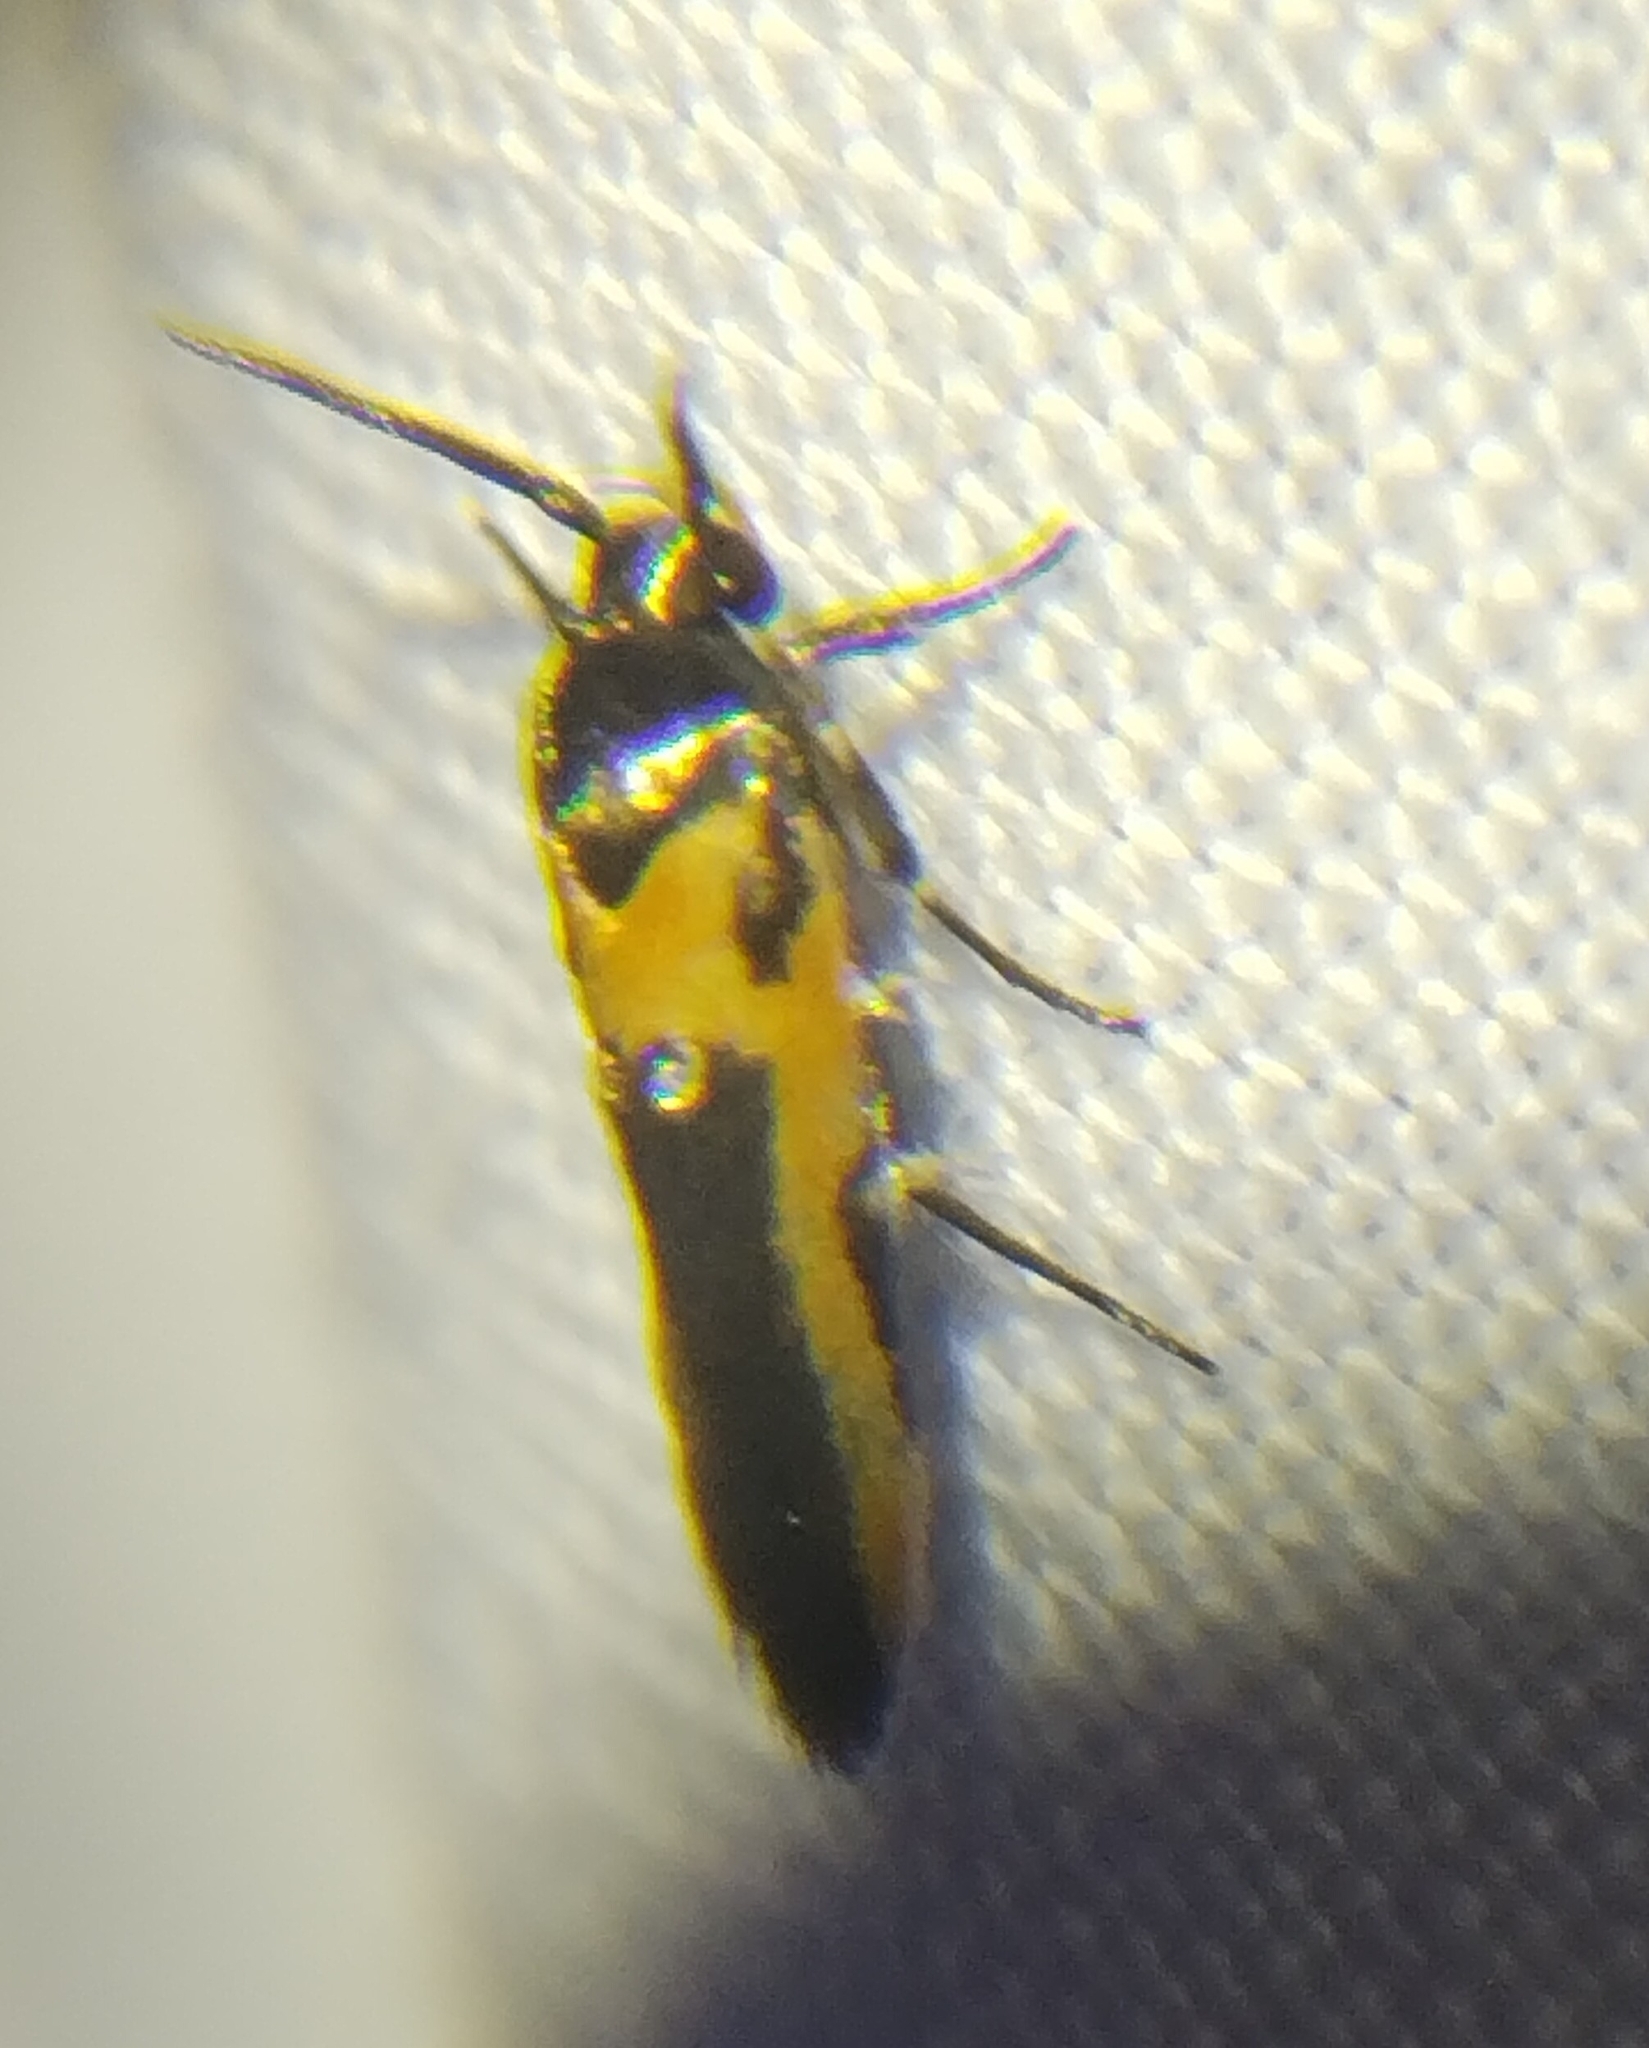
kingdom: Animalia
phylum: Arthropoda
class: Insecta
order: Lepidoptera
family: Cosmopterigidae
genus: Euclemensia
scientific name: Euclemensia bassettella
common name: Kermes scale moth
